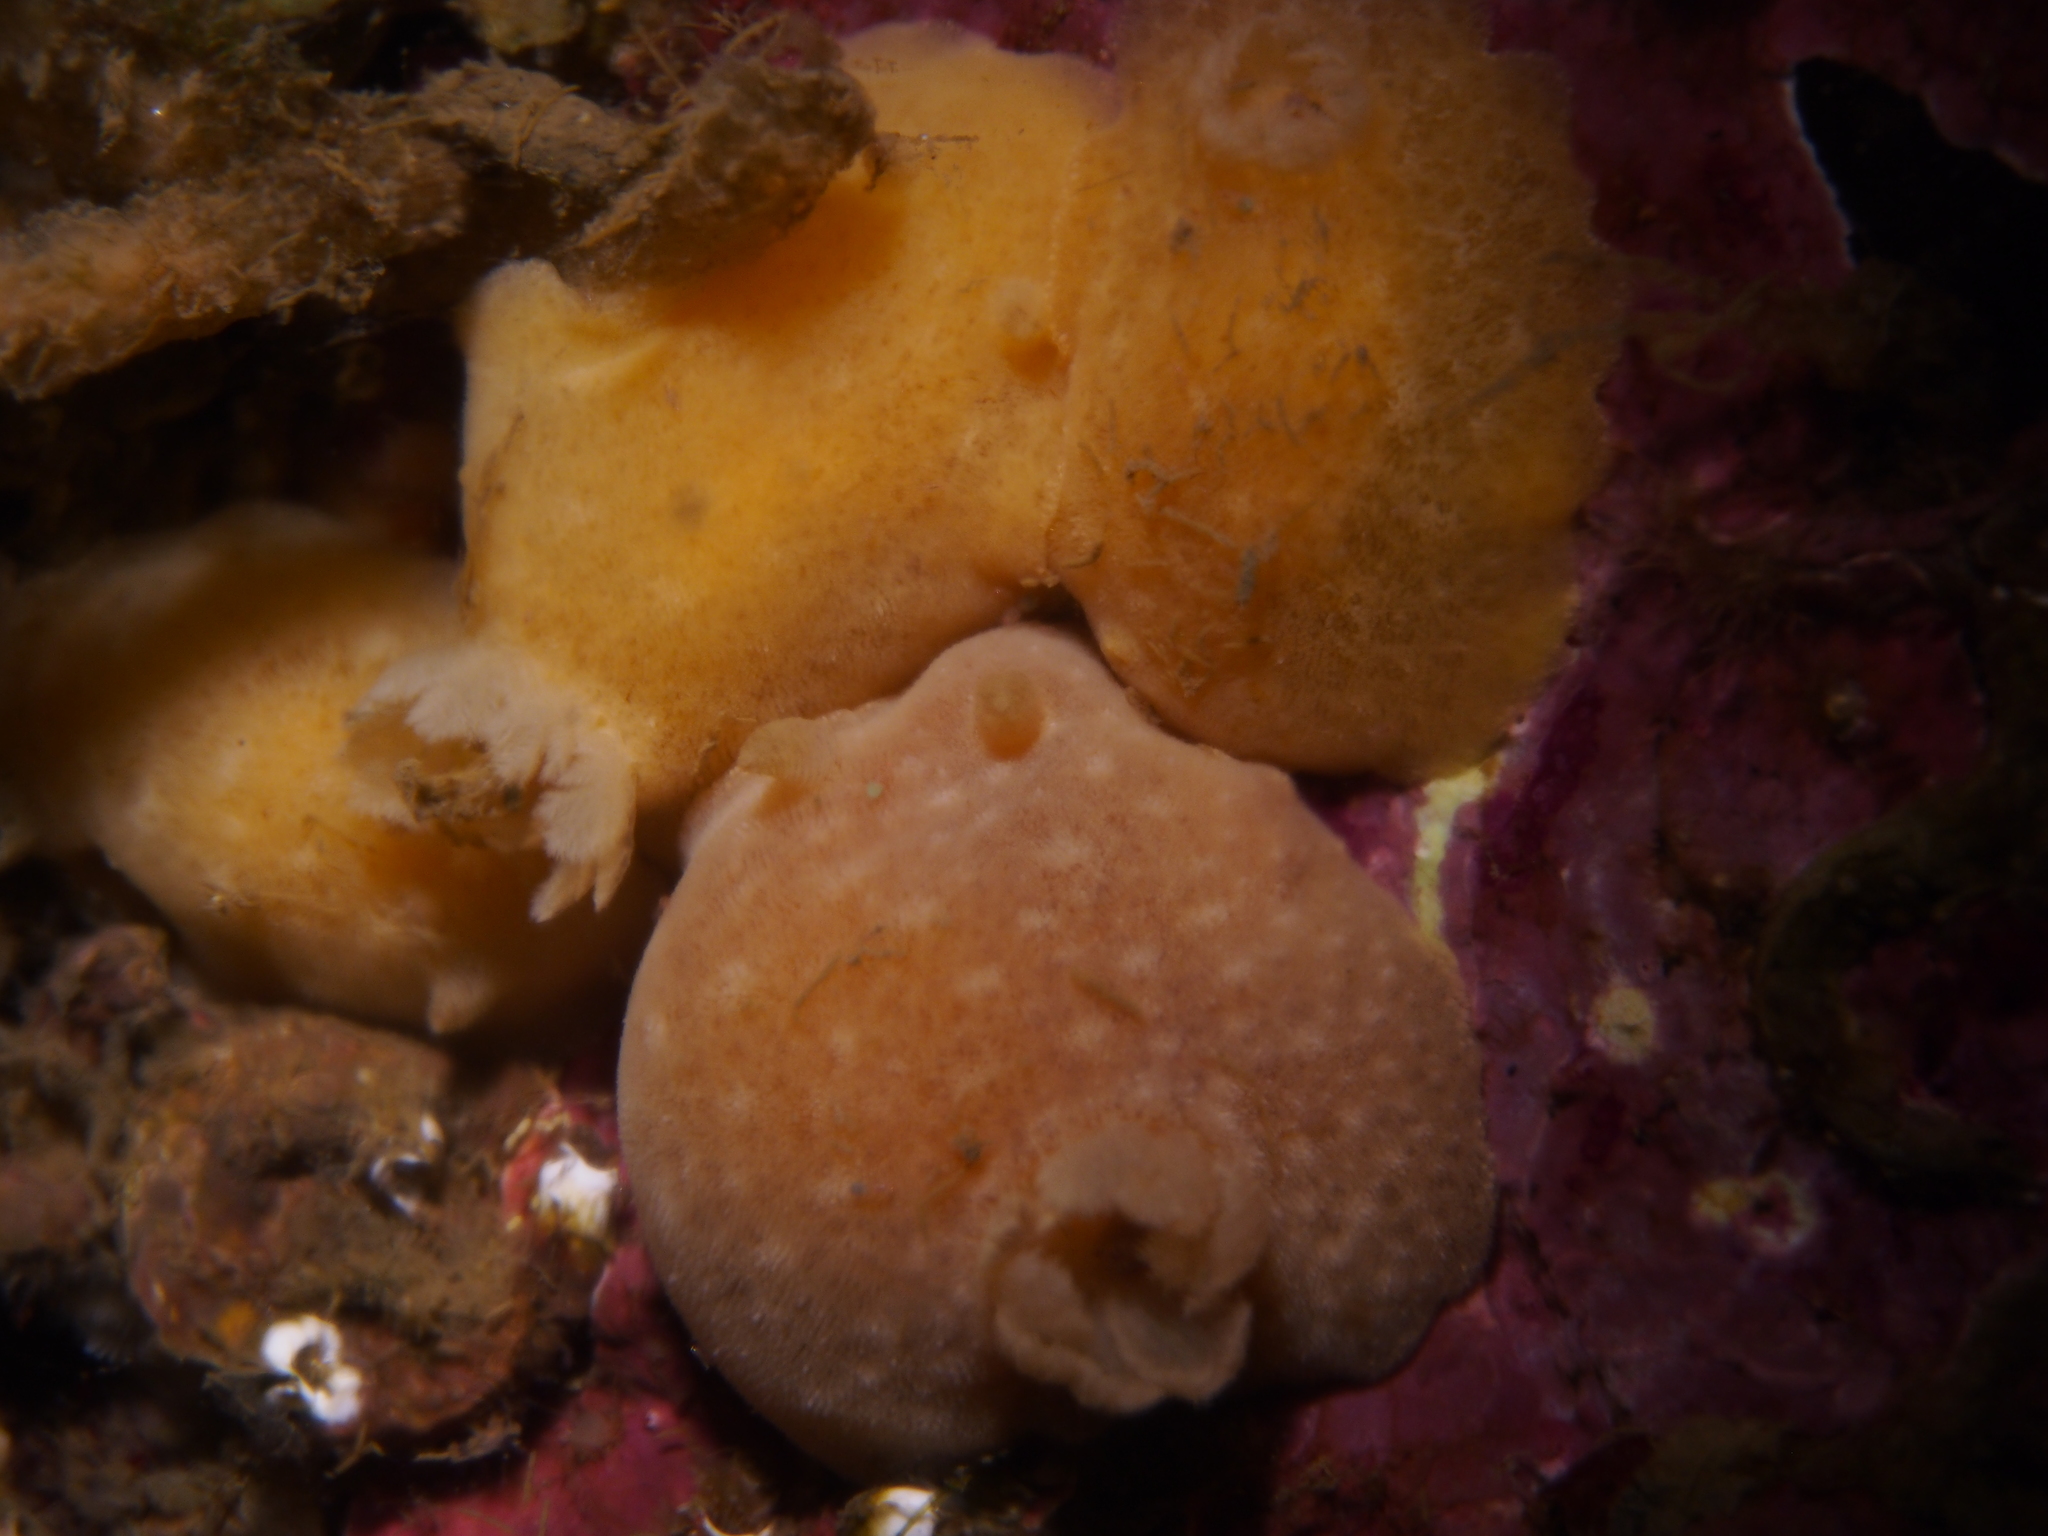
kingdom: Animalia
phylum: Mollusca
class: Gastropoda
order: Nudibranchia
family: Discodorididae
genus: Jorunna
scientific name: Jorunna tomentosa
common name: Grey sea slug
